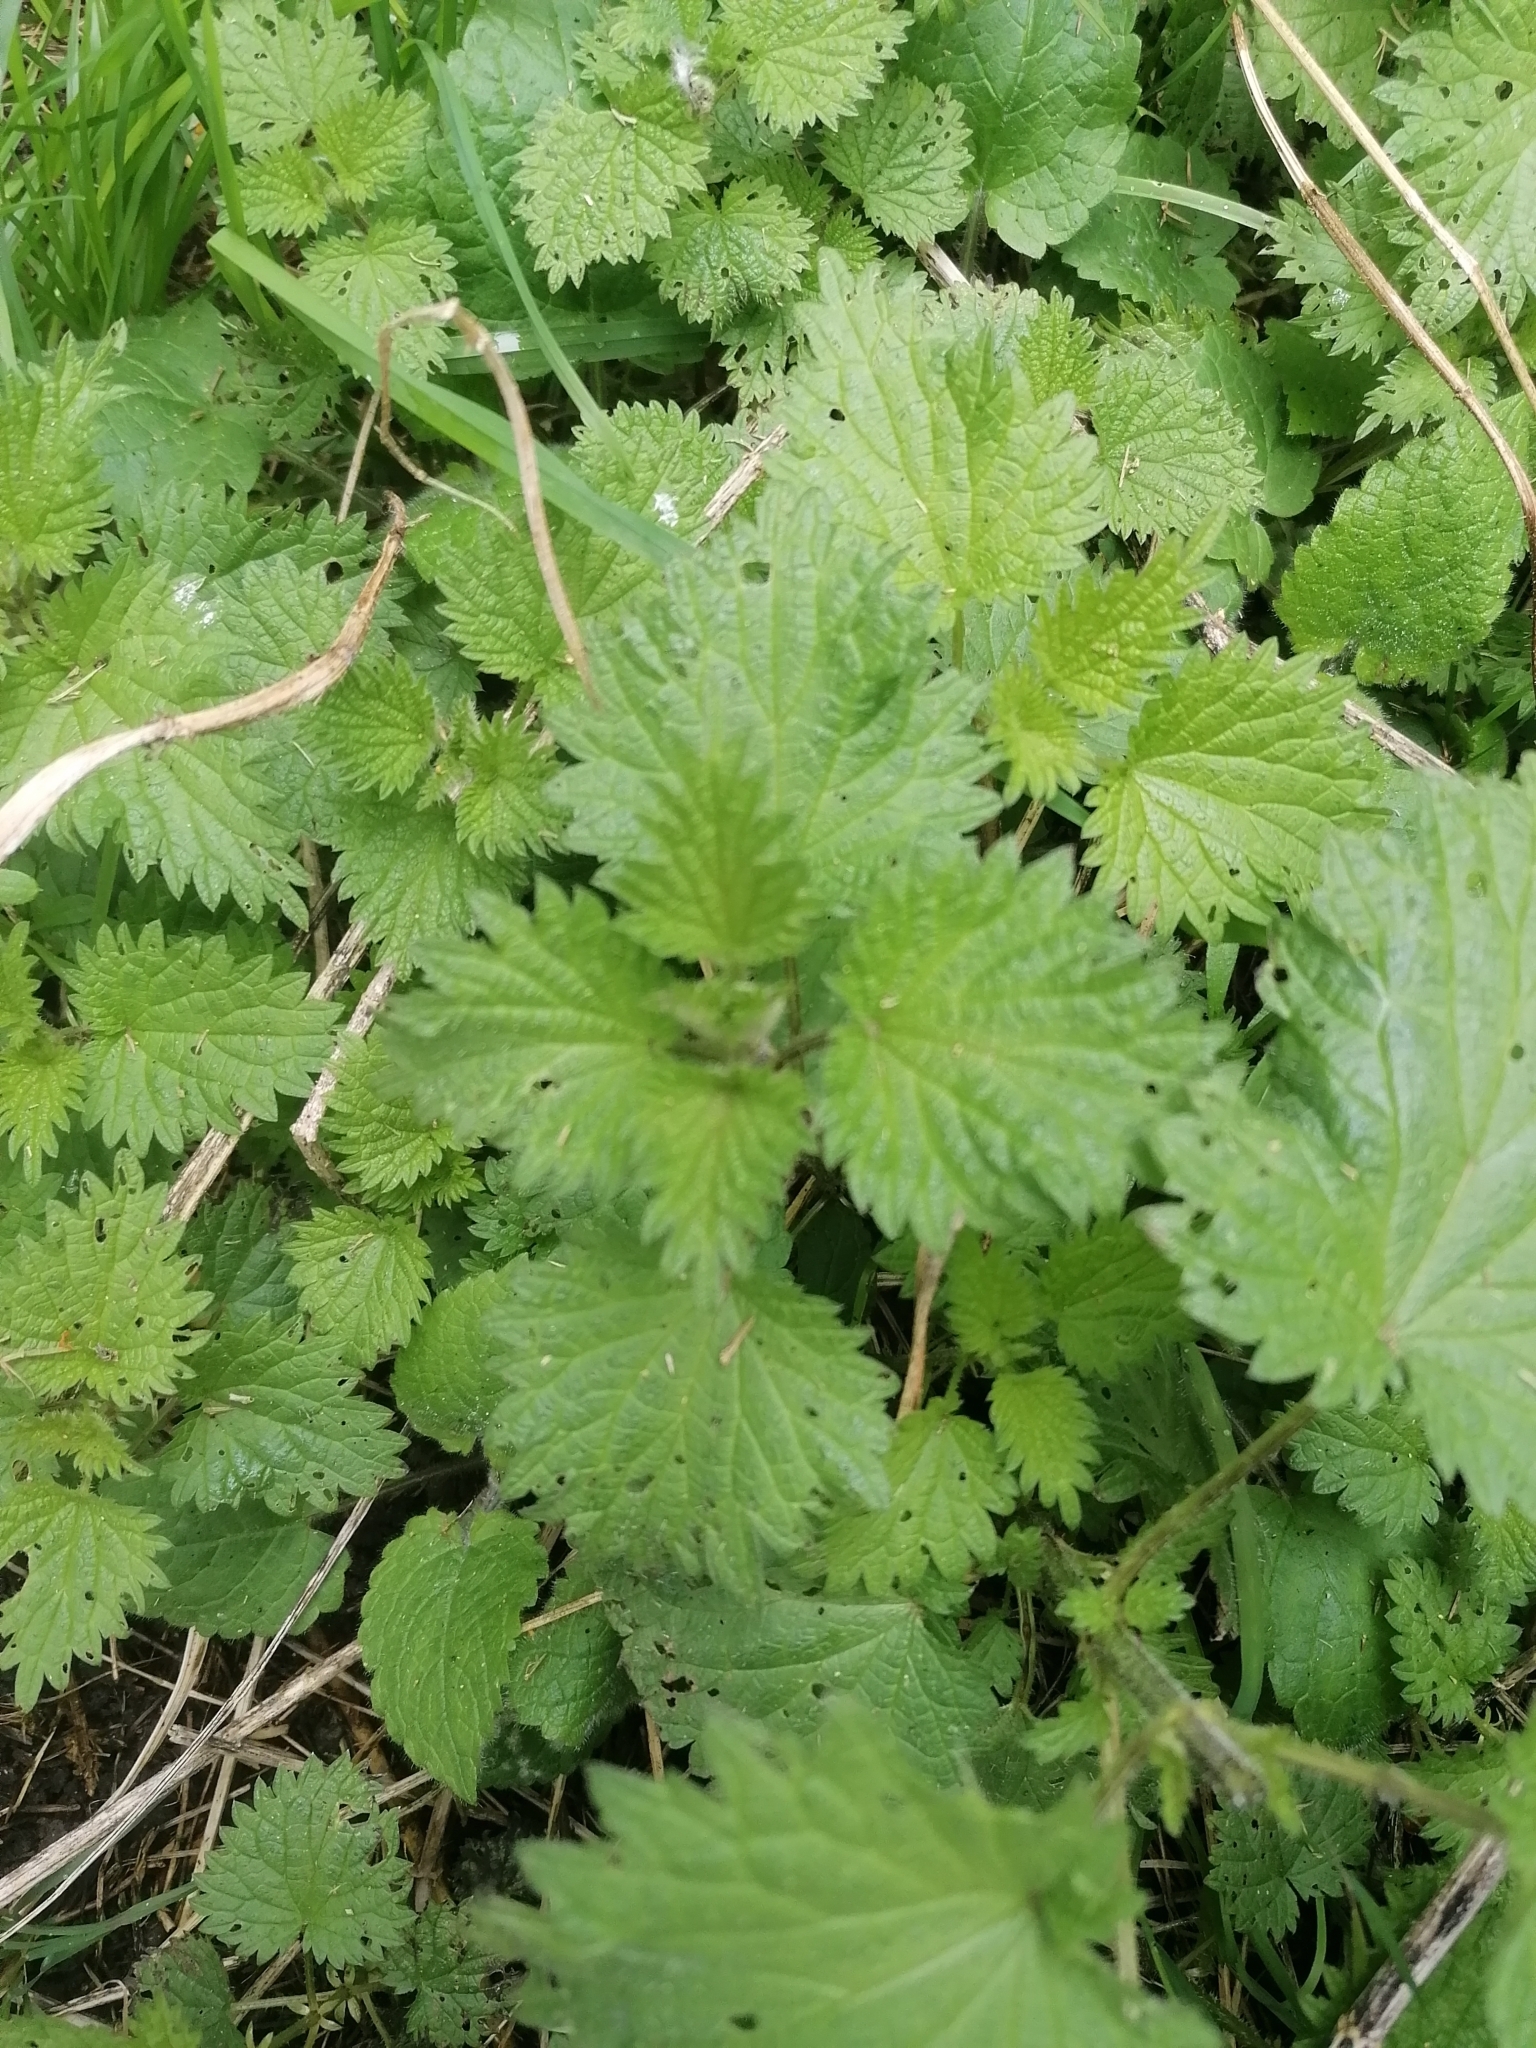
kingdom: Plantae
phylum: Tracheophyta
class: Magnoliopsida
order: Rosales
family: Urticaceae
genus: Urtica
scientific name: Urtica dioica
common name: Common nettle
